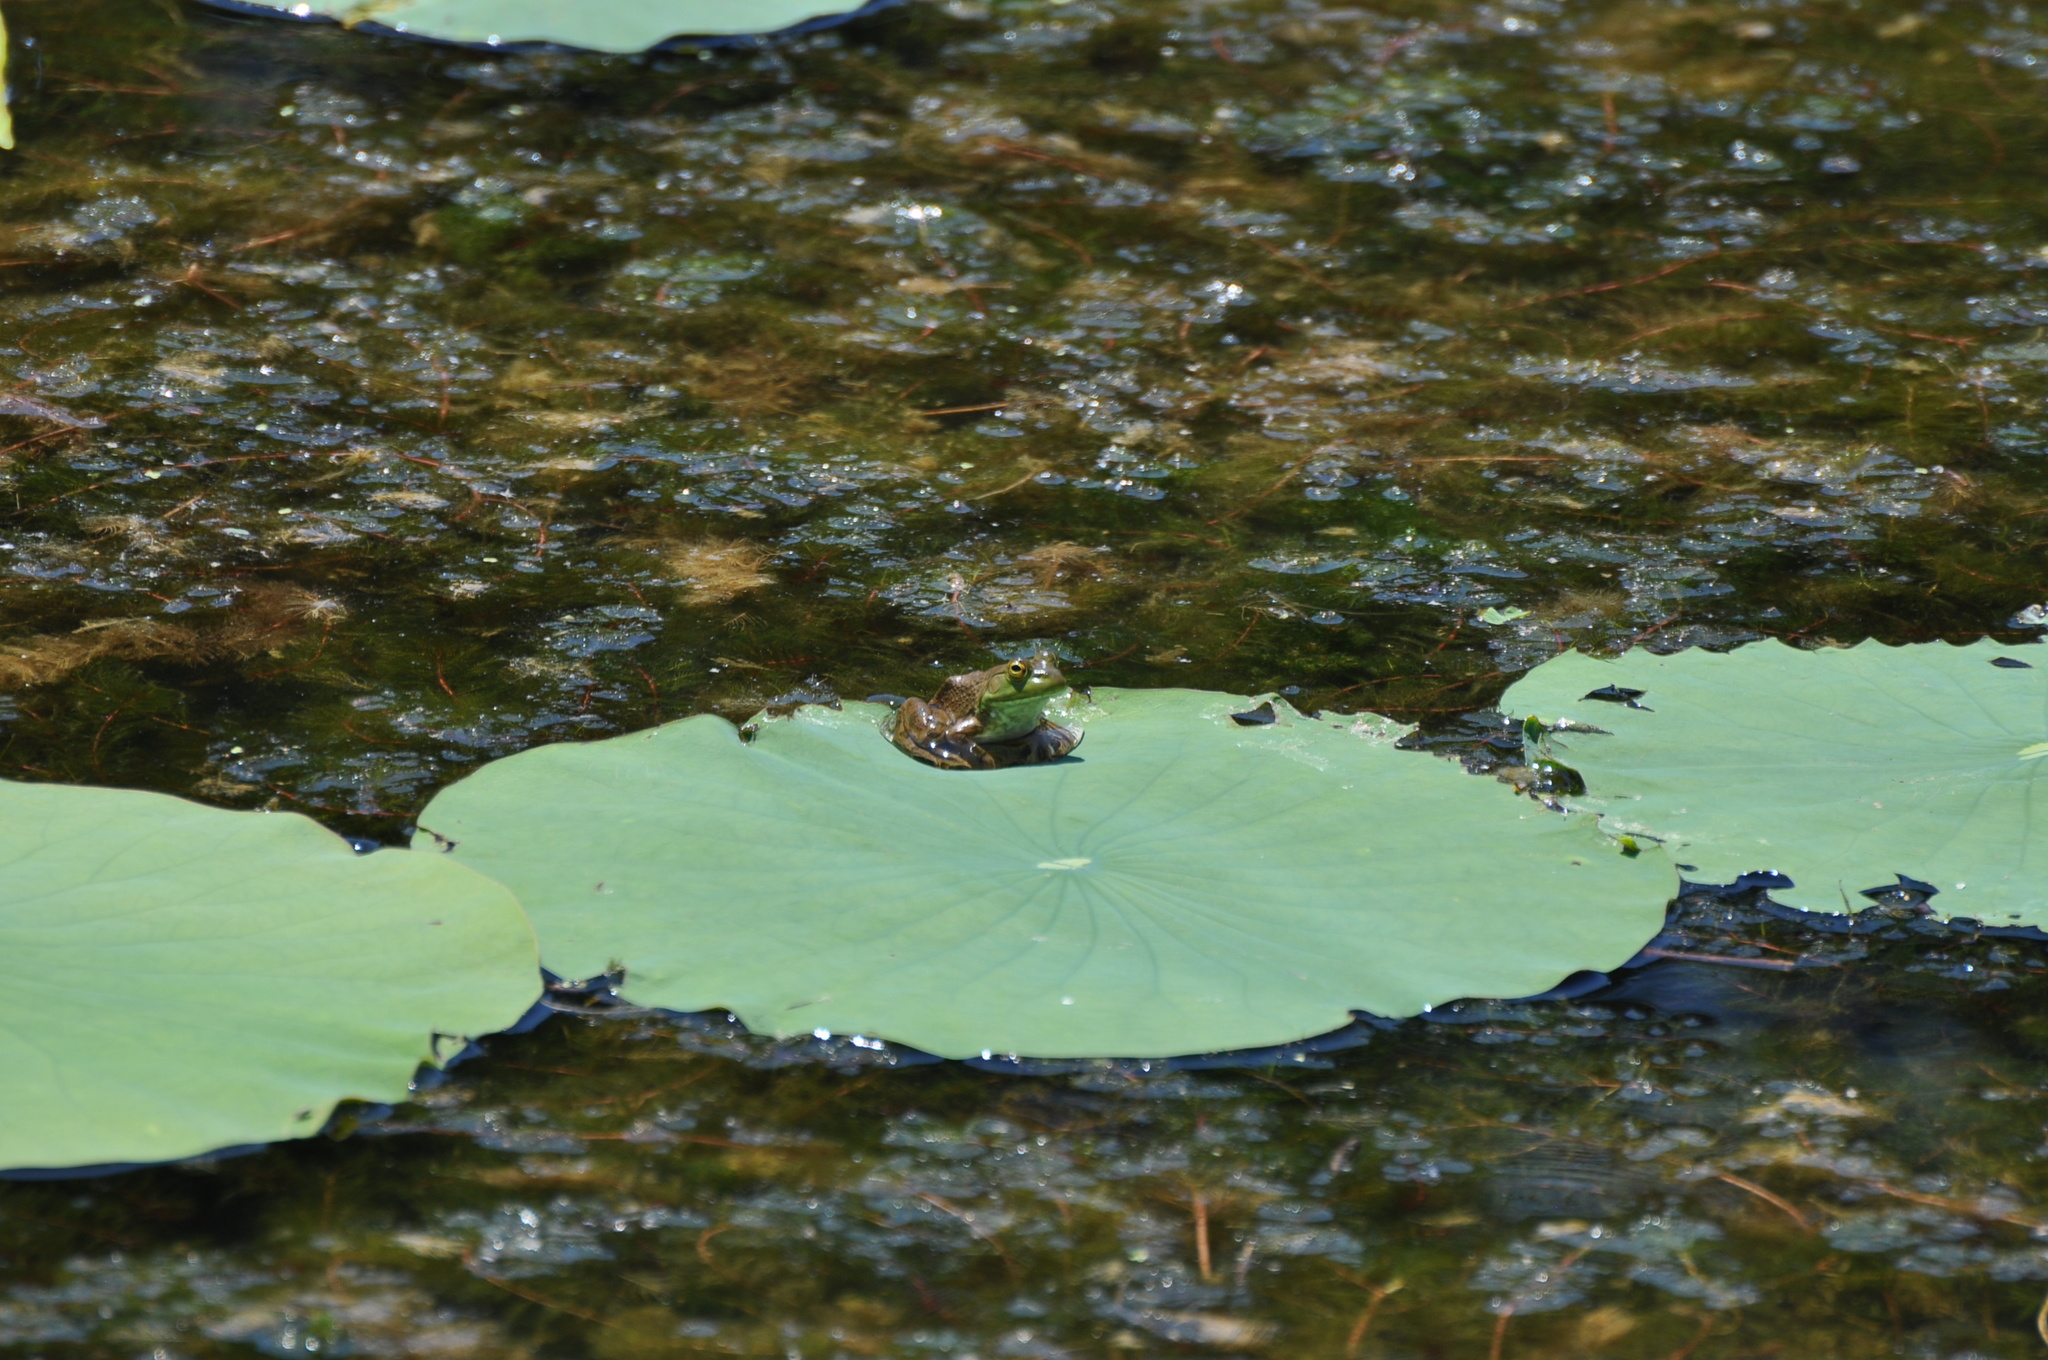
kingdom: Animalia
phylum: Chordata
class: Amphibia
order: Anura
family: Ranidae
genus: Lithobates
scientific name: Lithobates catesbeianus
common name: American bullfrog
